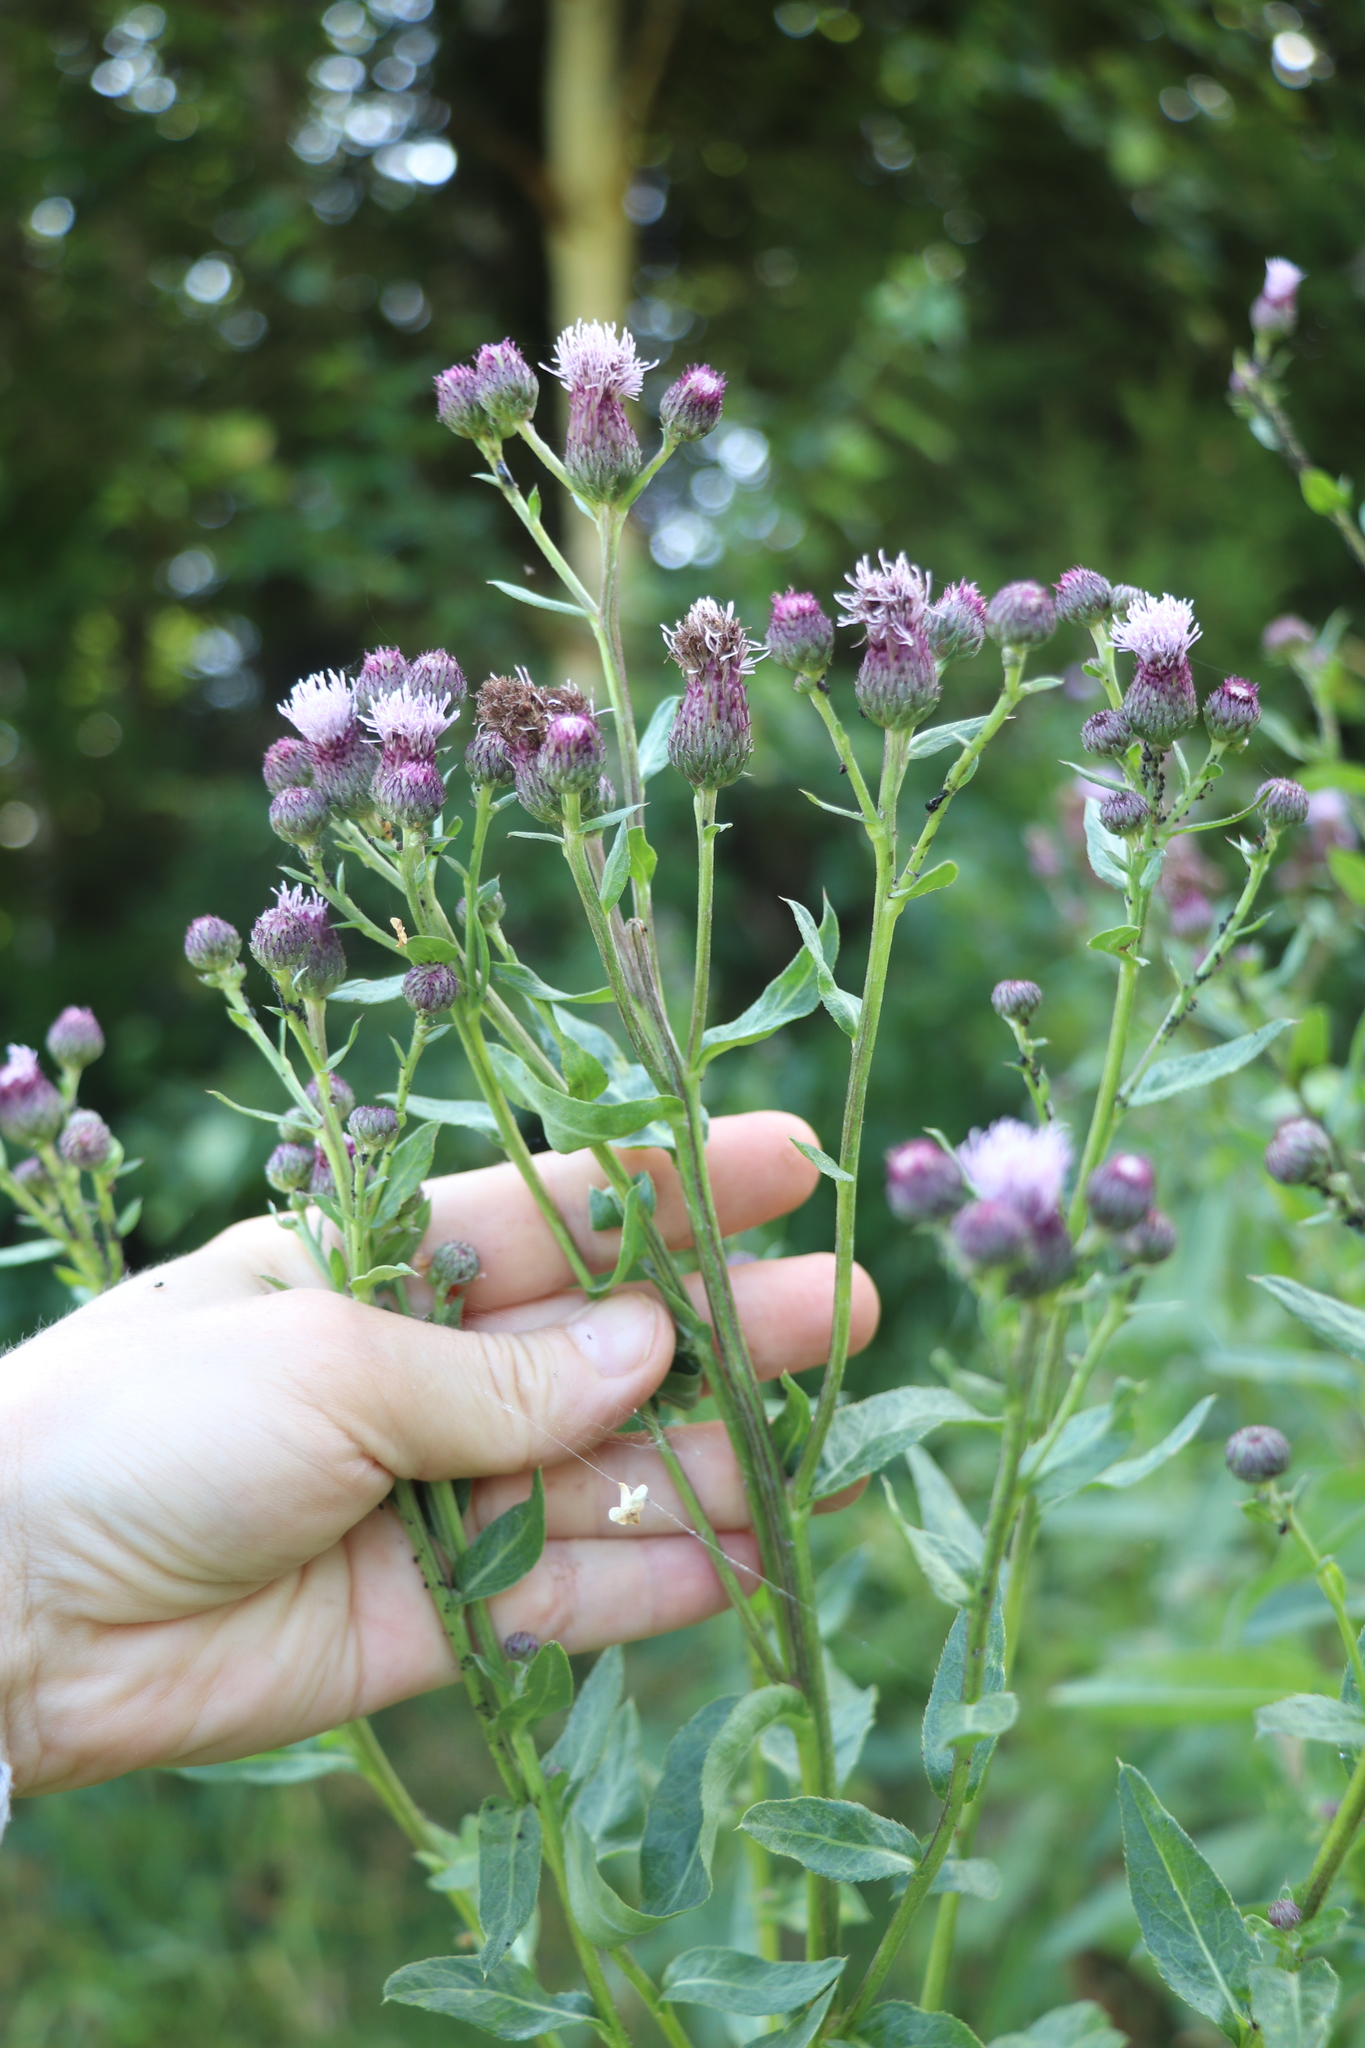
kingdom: Plantae
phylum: Tracheophyta
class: Magnoliopsida
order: Asterales
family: Asteraceae
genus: Cirsium
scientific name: Cirsium arvense
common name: Creeping thistle
